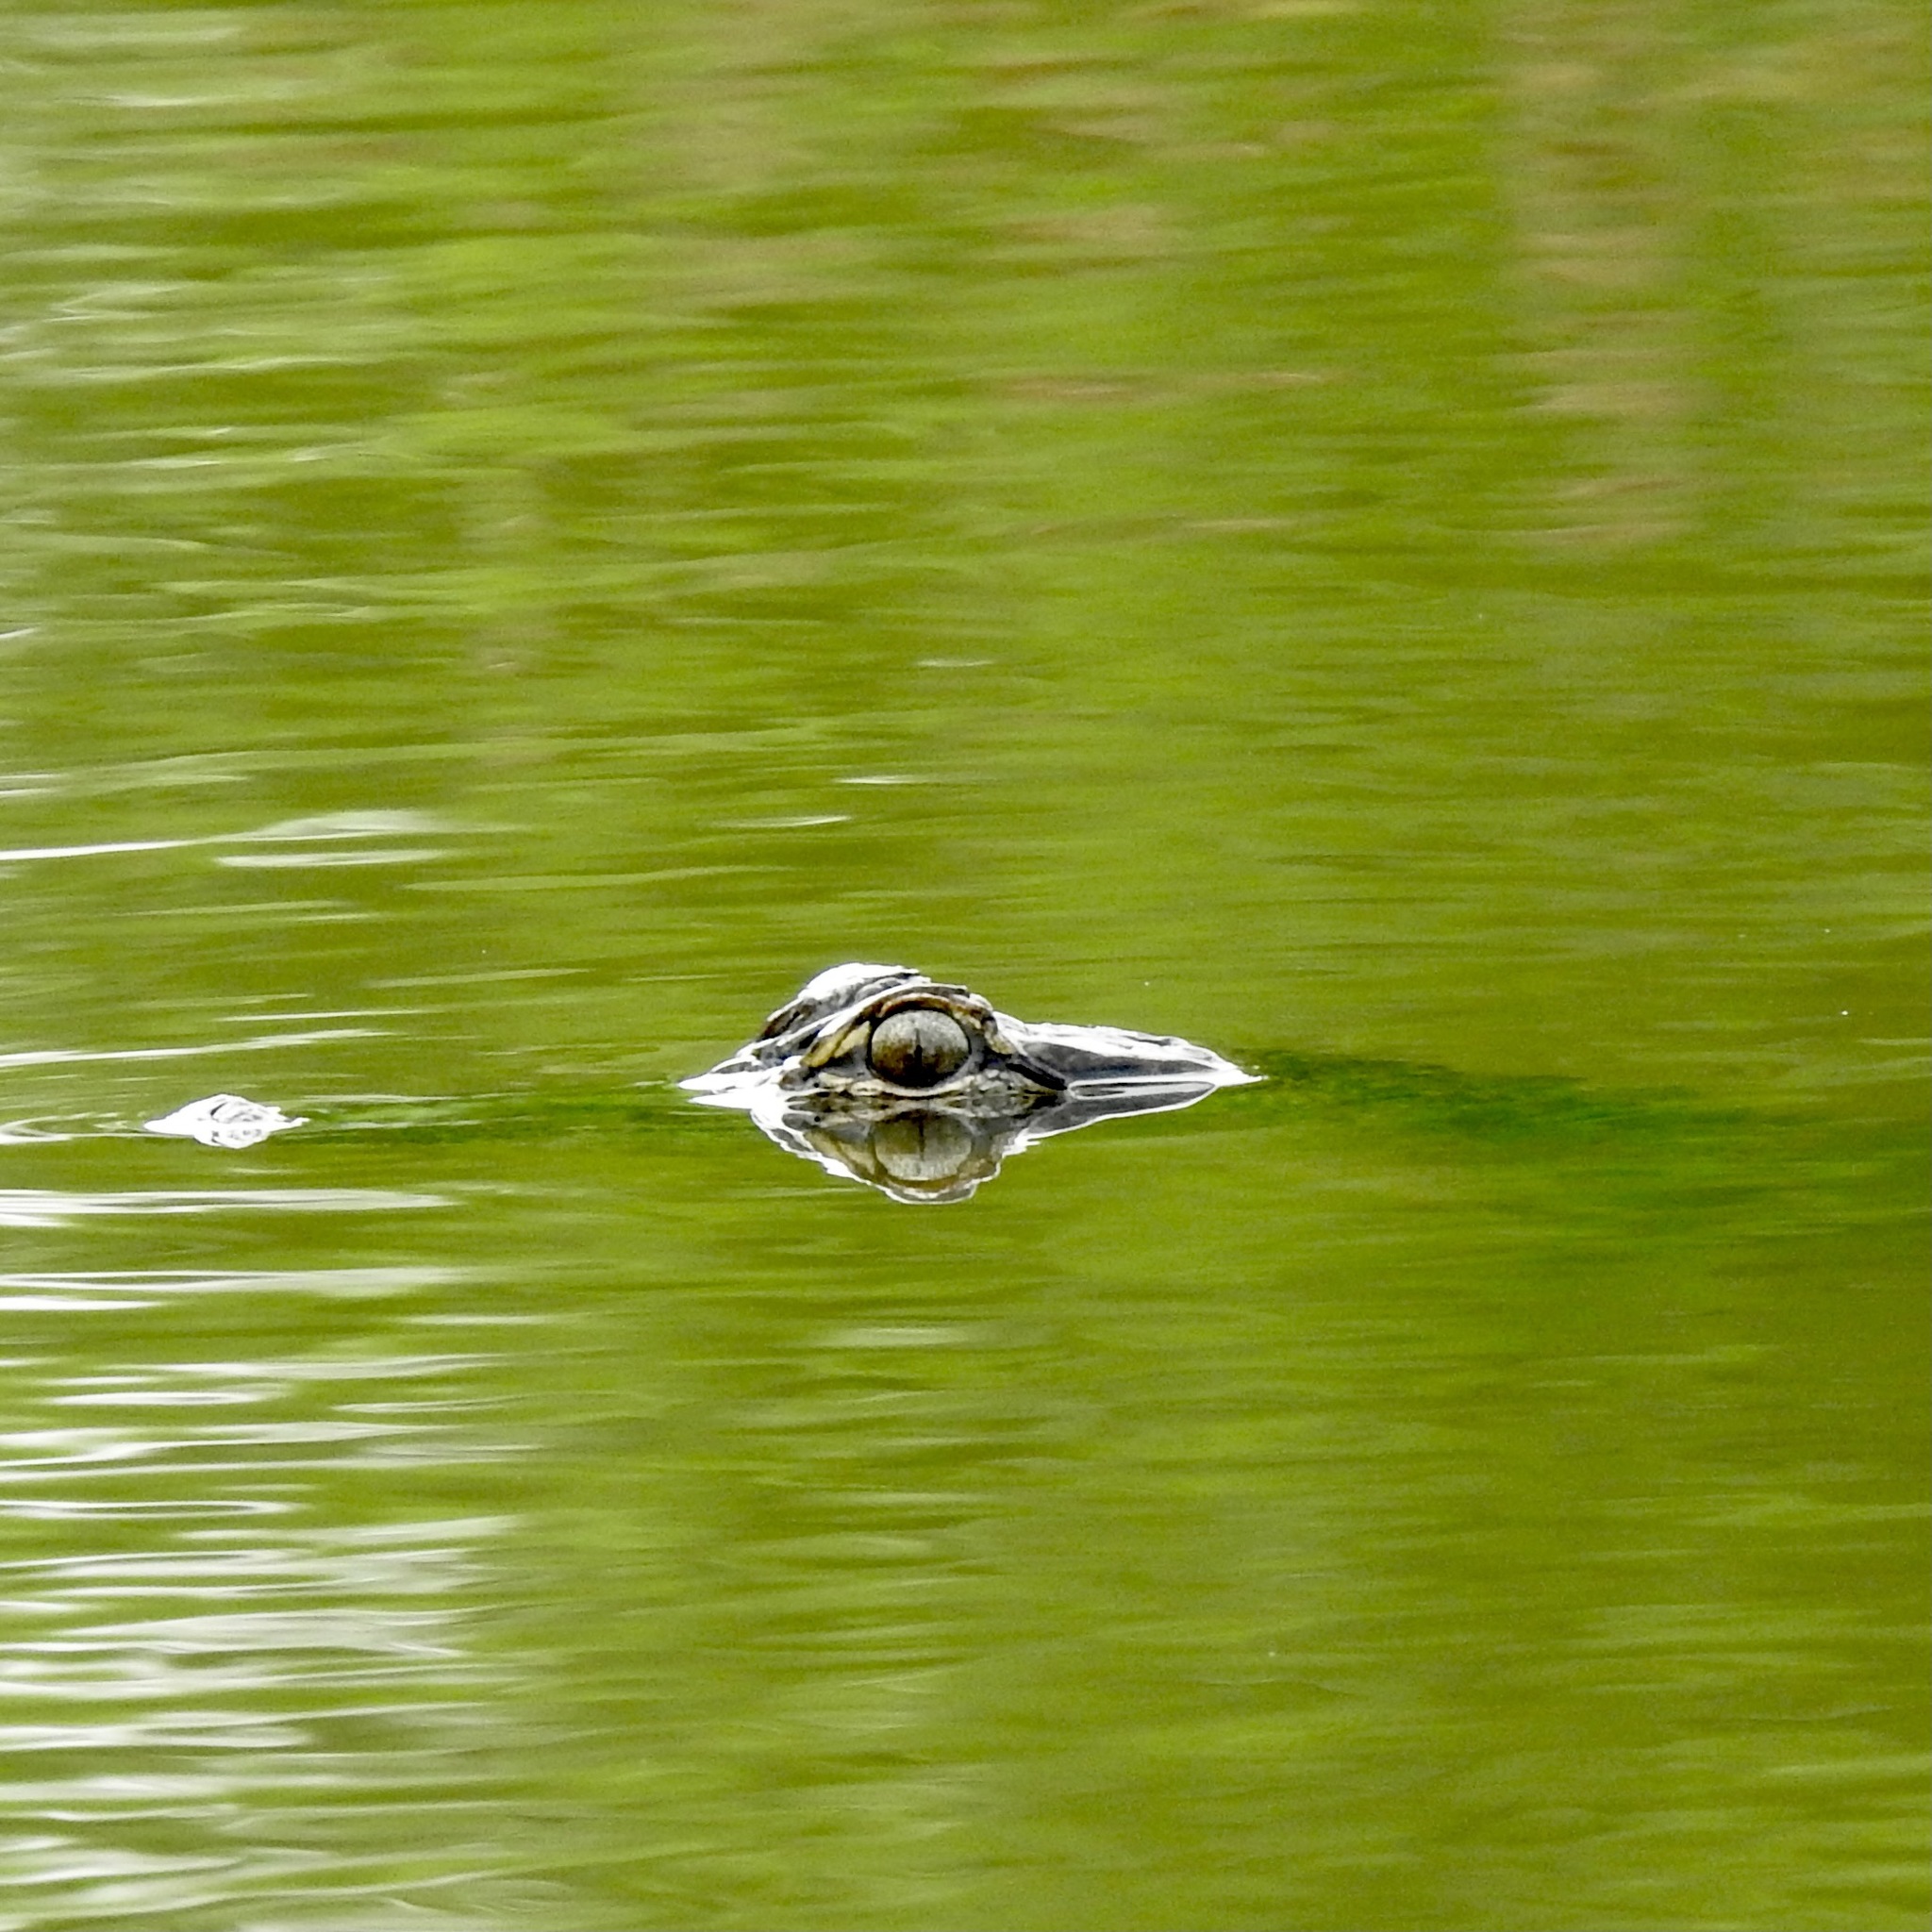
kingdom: Animalia
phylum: Chordata
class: Crocodylia
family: Alligatoridae
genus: Alligator
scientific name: Alligator mississippiensis
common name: American alligator
